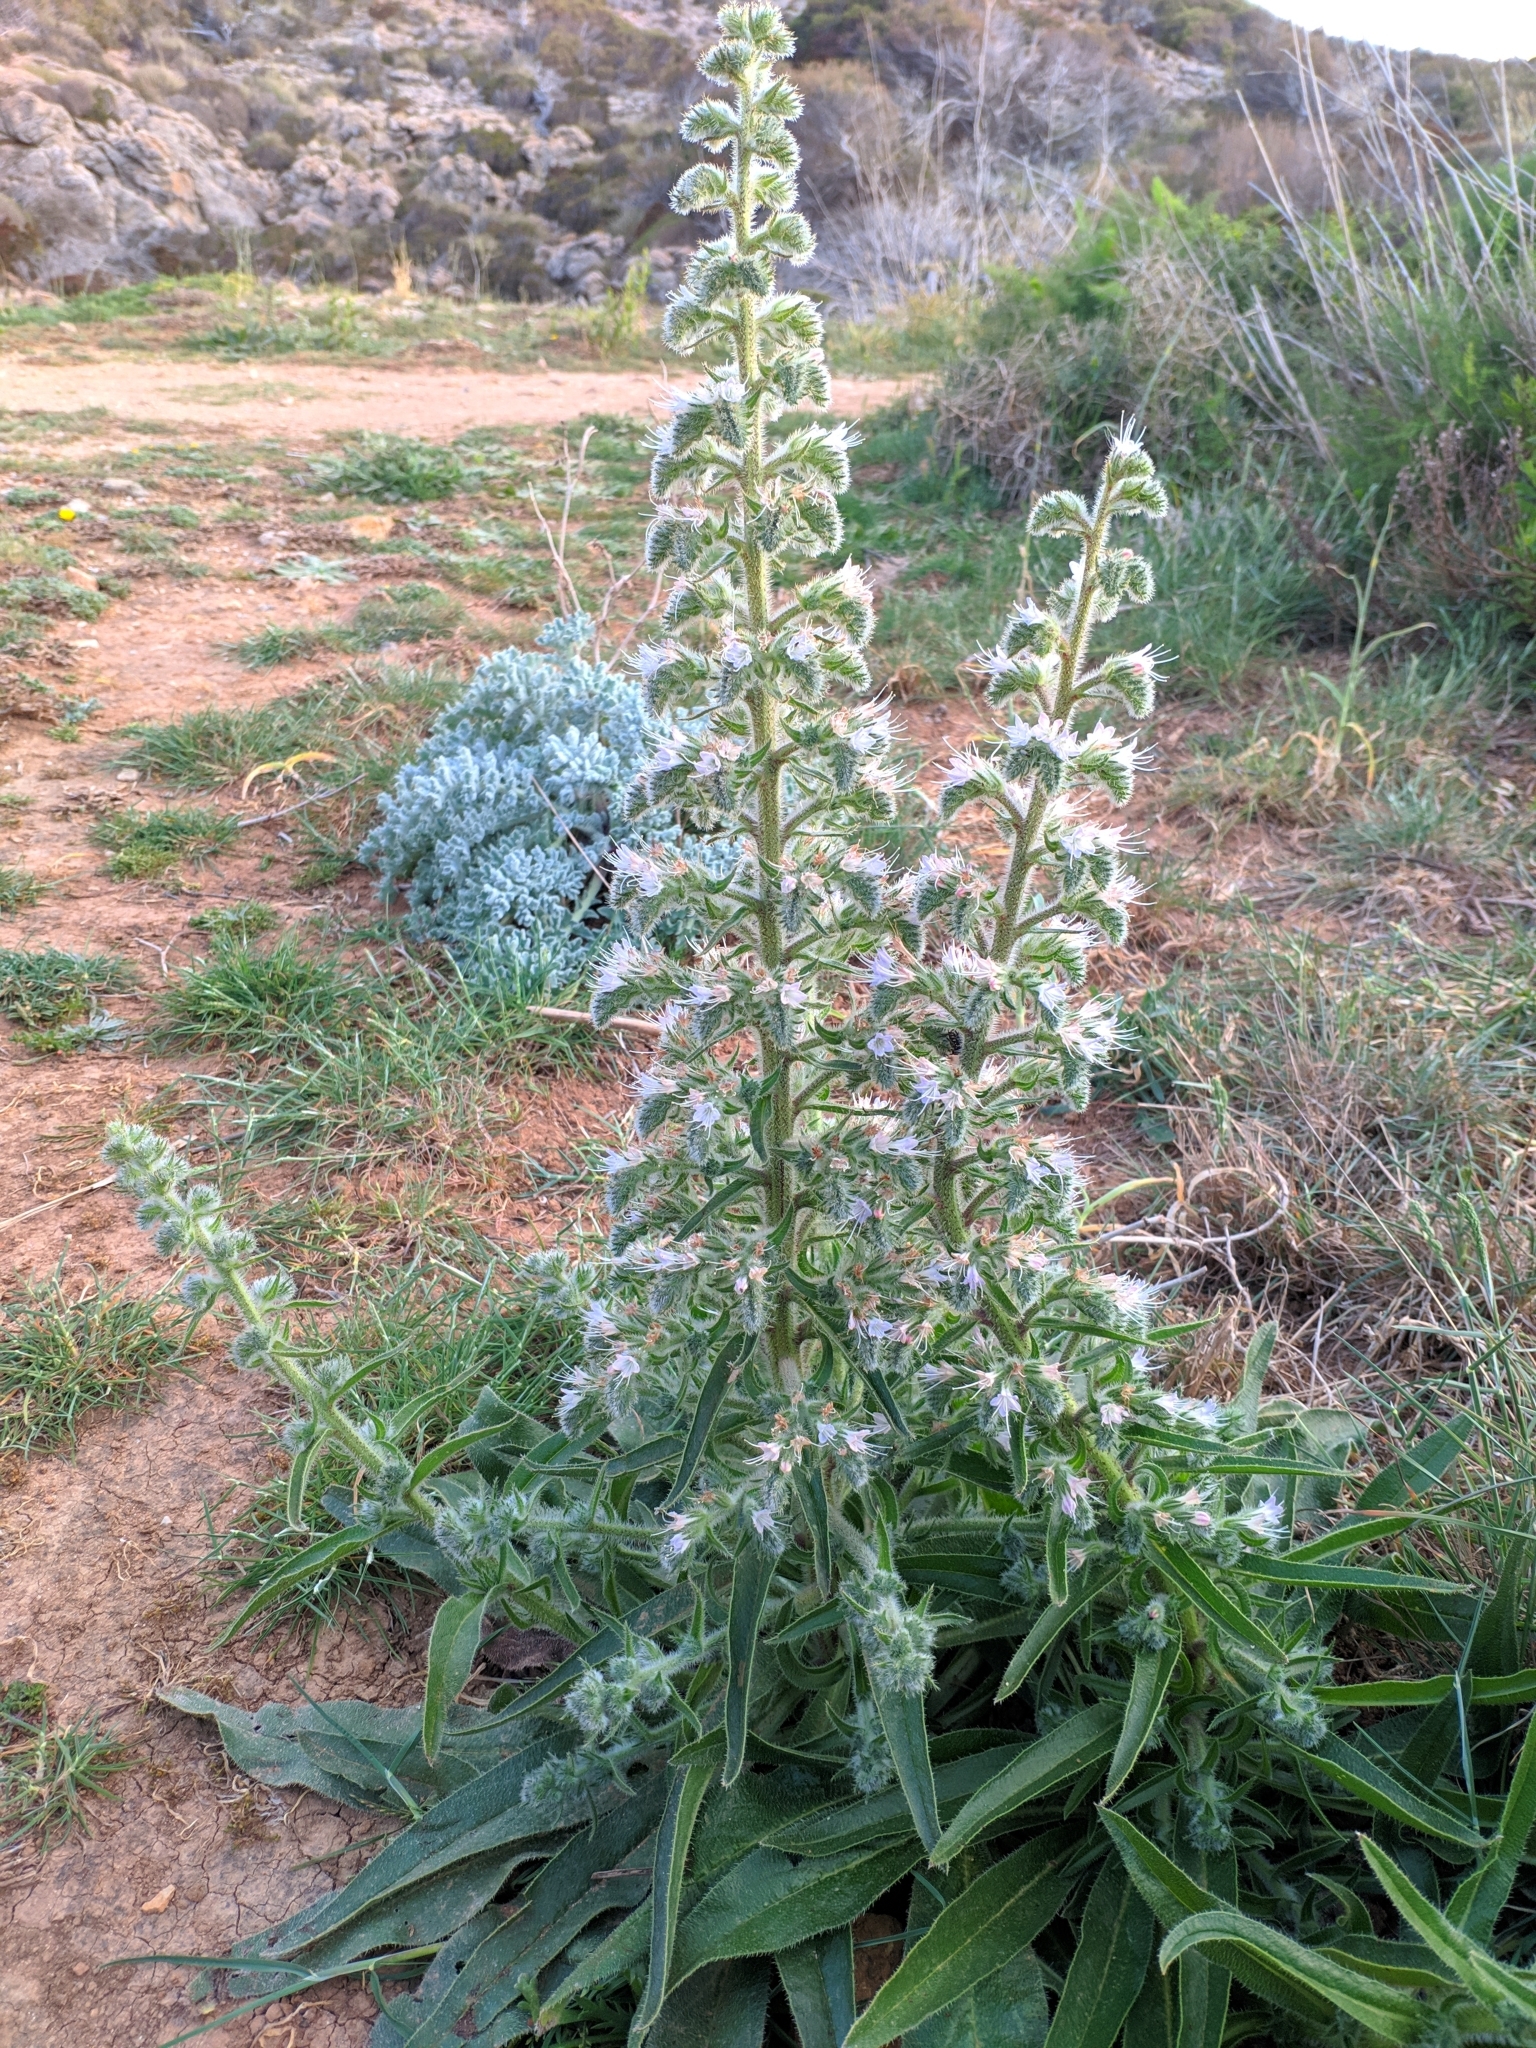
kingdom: Plantae
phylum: Tracheophyta
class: Magnoliopsida
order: Boraginales
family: Boraginaceae
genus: Echium
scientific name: Echium italicum
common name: Italian viper's bugloss
